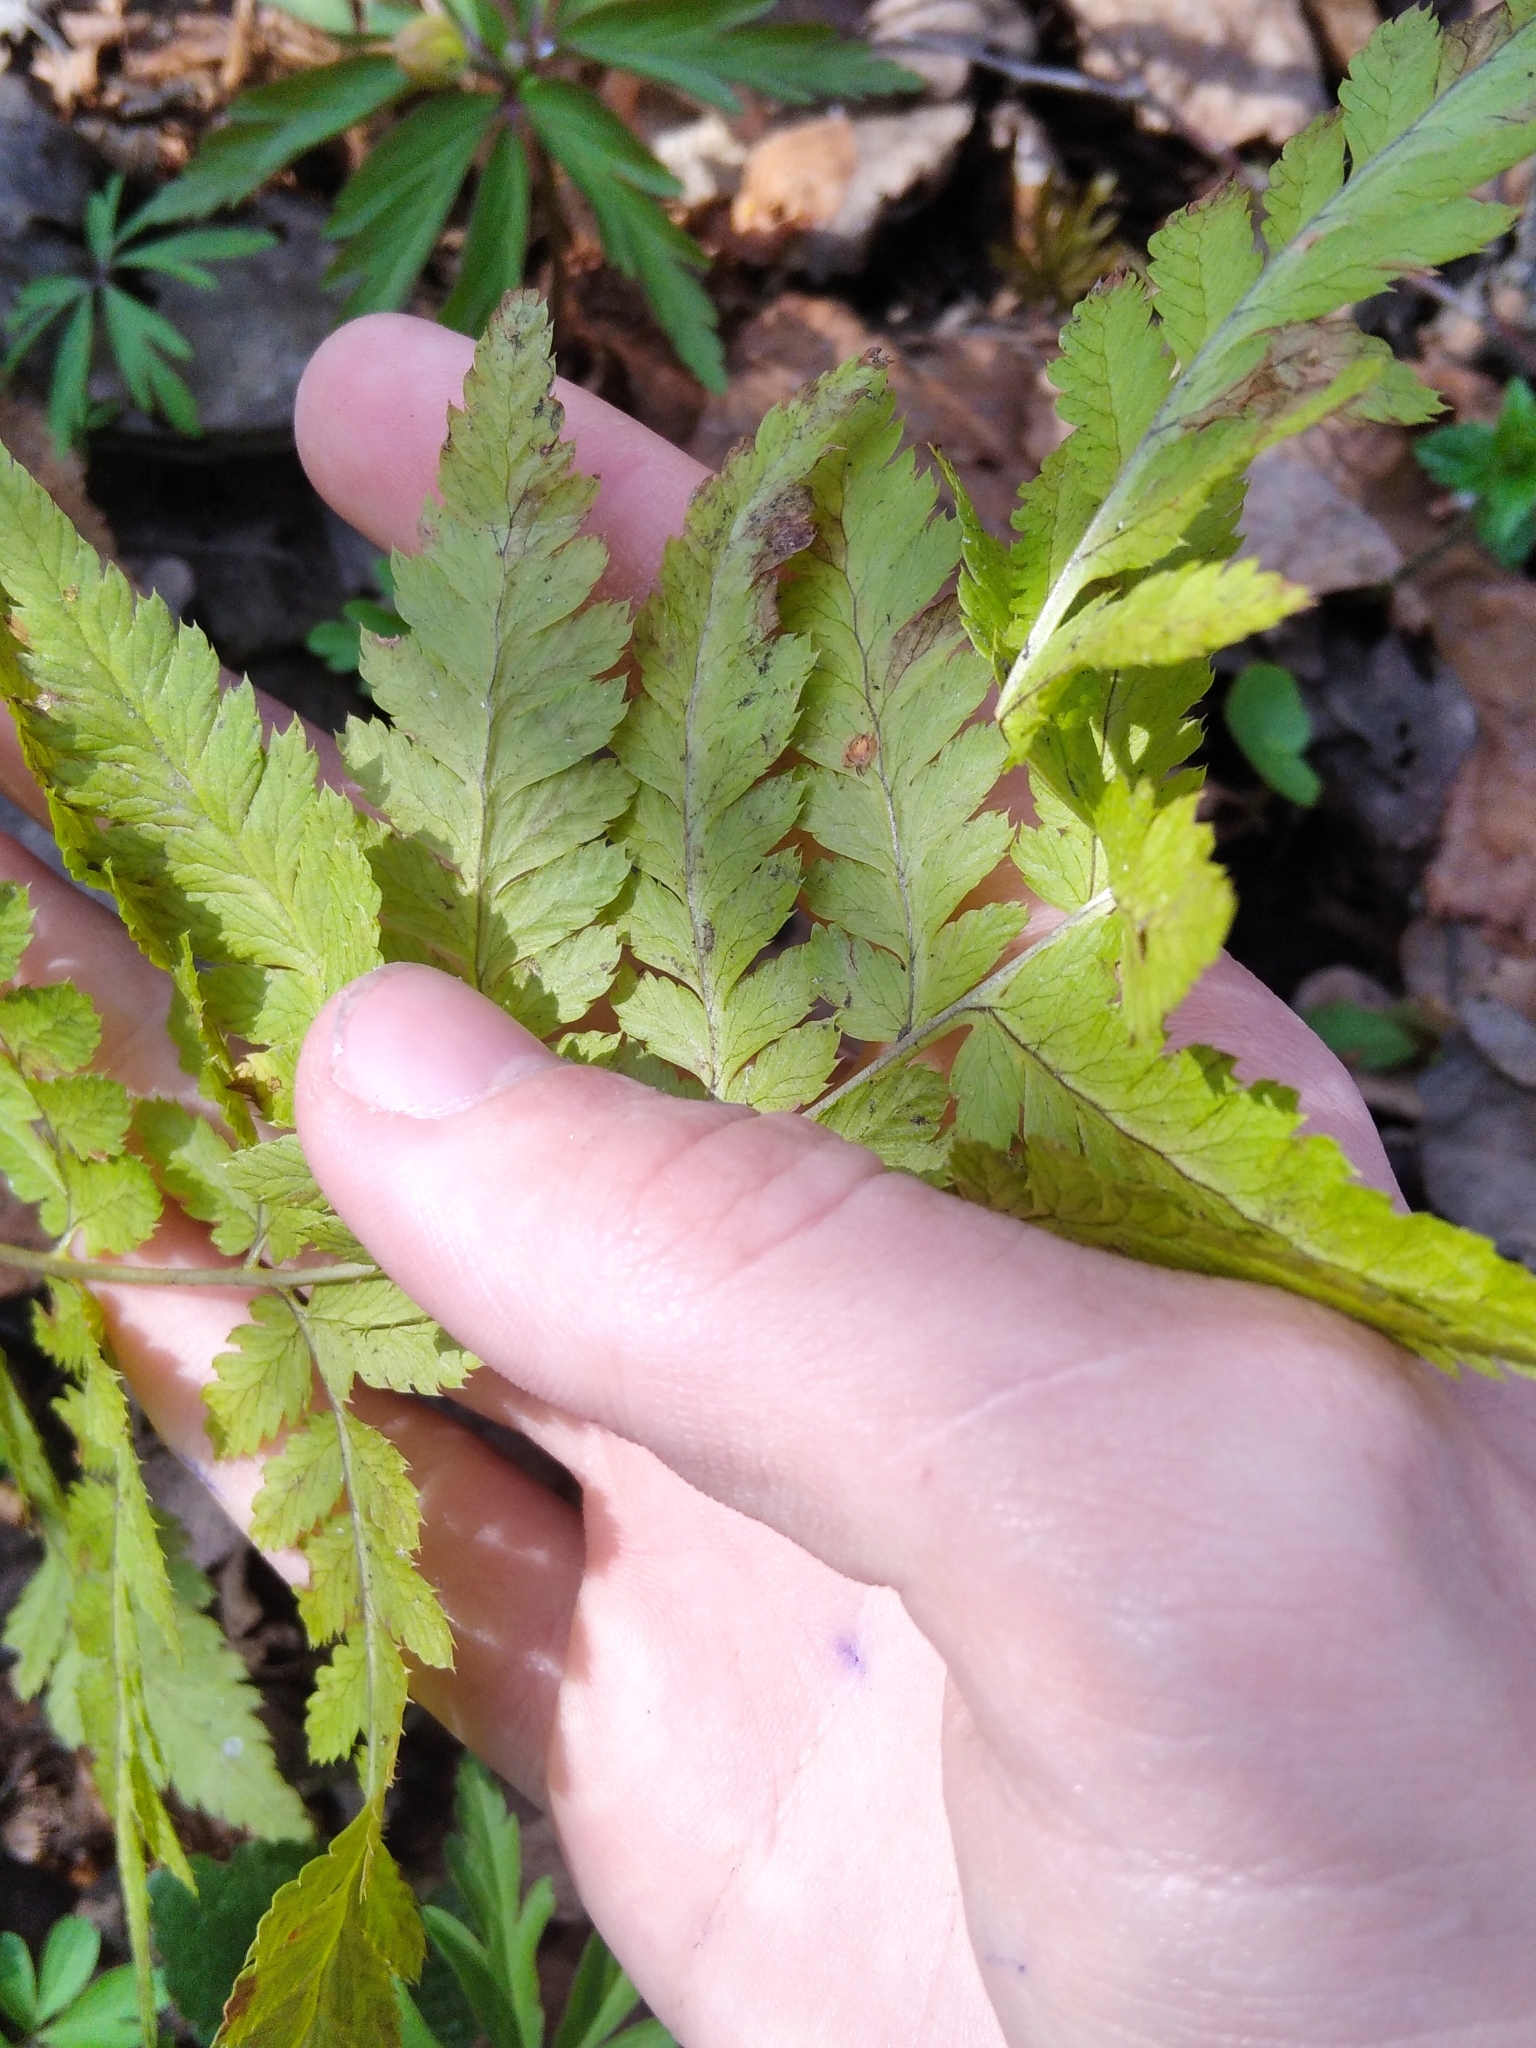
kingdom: Plantae
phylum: Tracheophyta
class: Polypodiopsida
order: Polypodiales
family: Dryopteridaceae
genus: Dryopteris
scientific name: Dryopteris carthusiana
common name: Narrow buckler-fern
